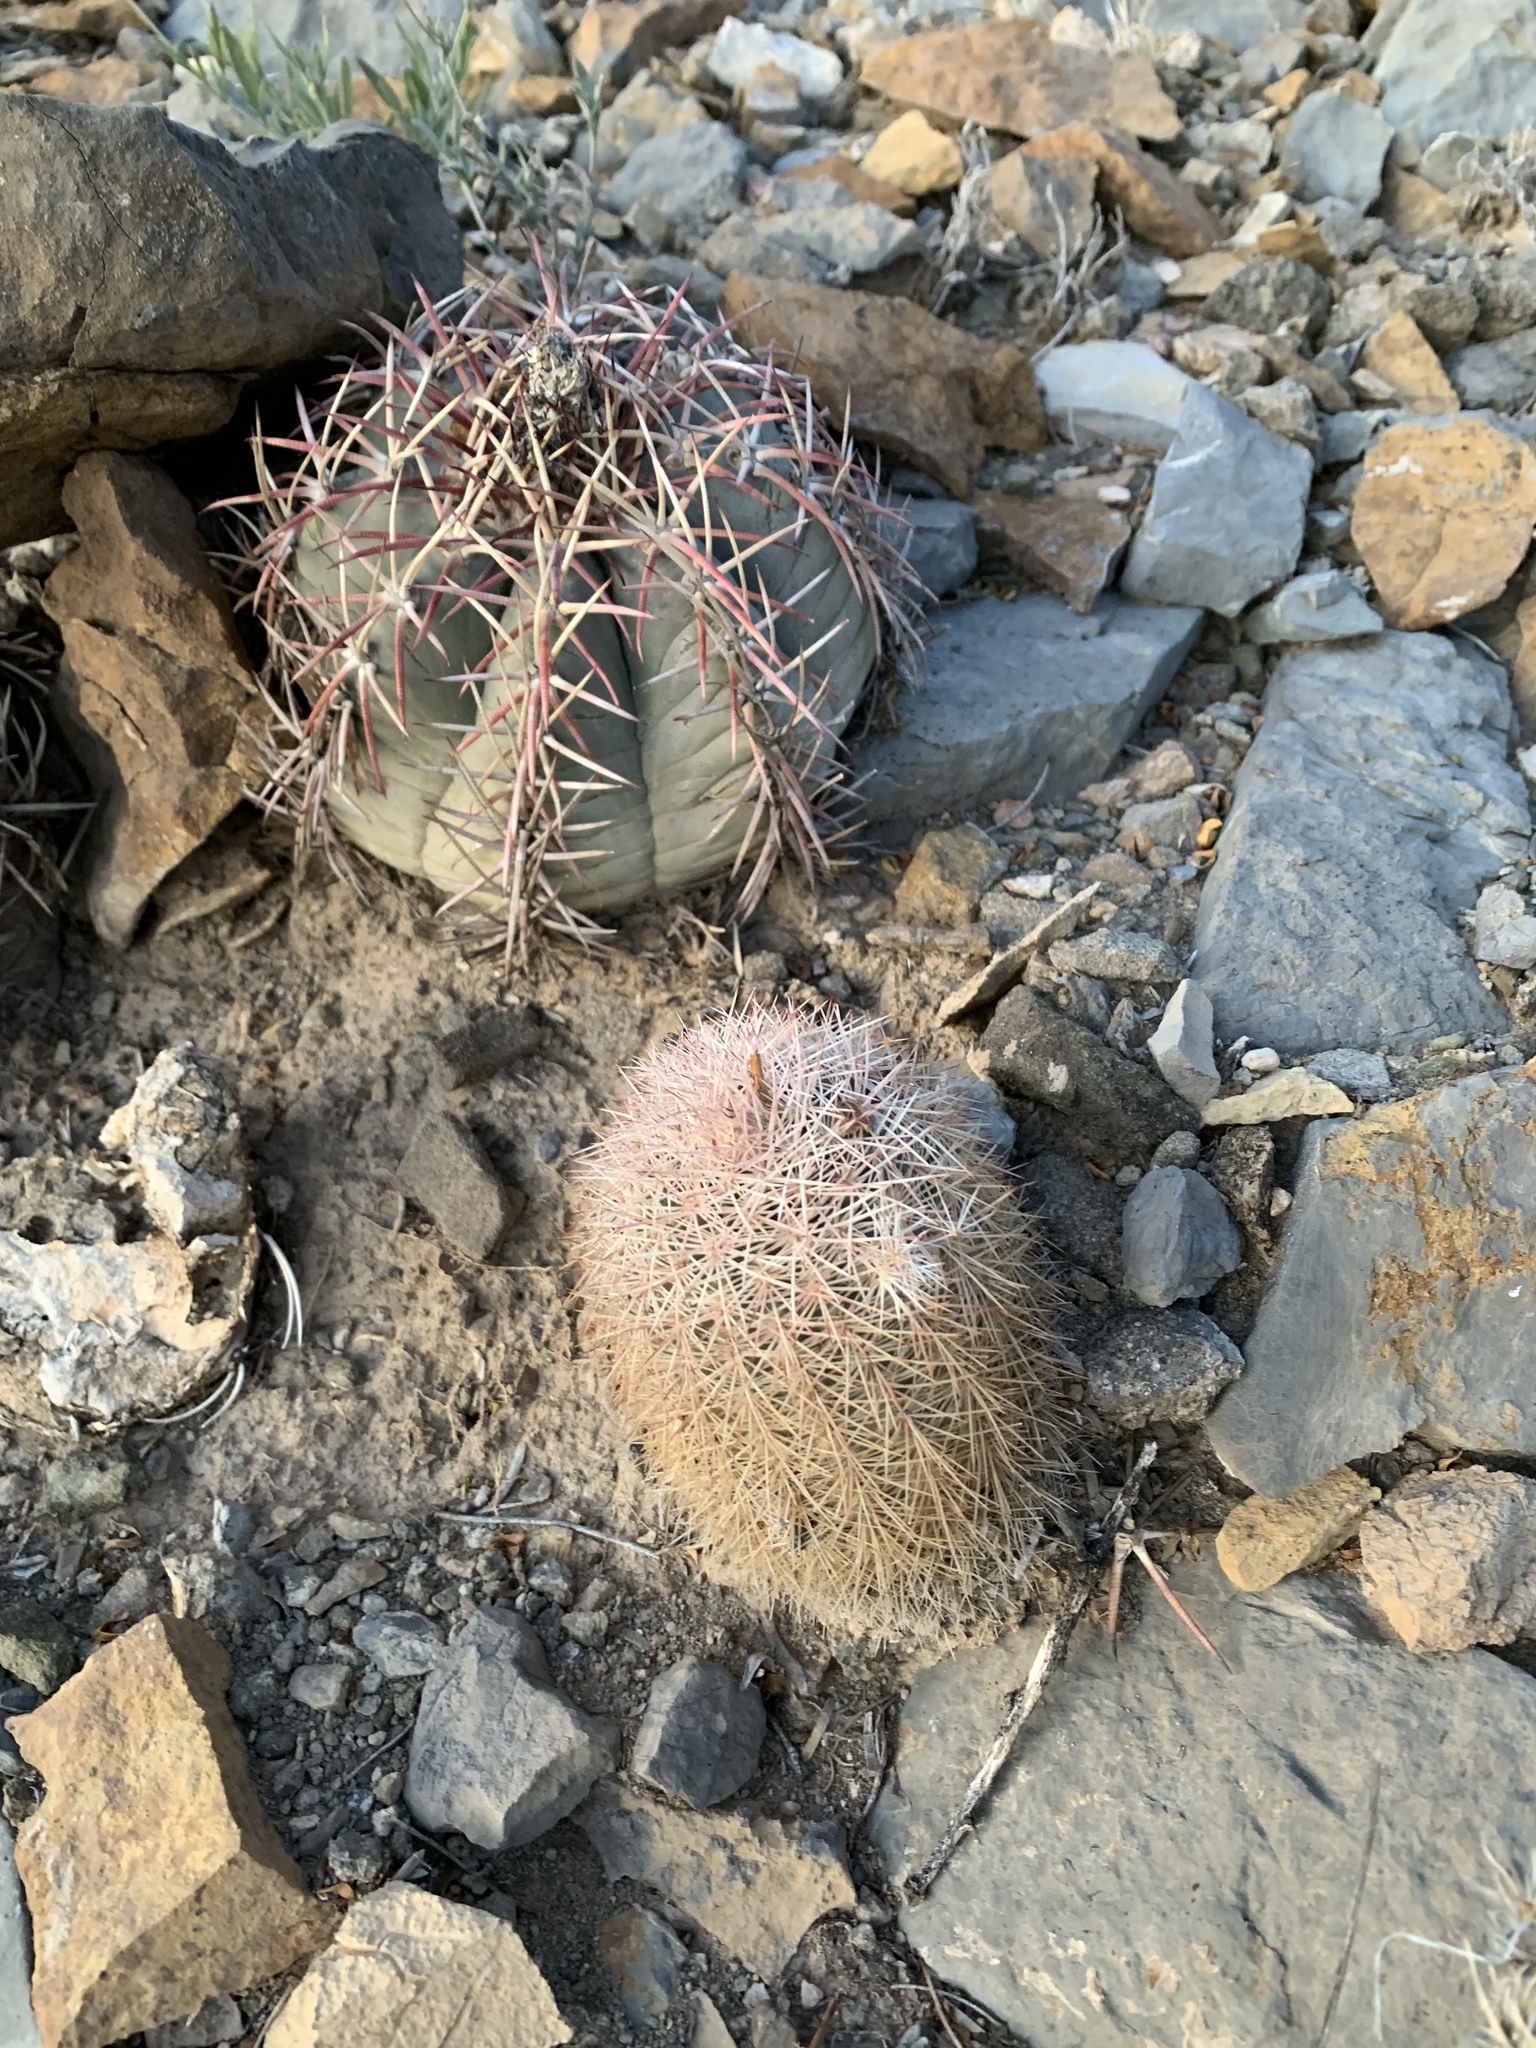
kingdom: Plantae
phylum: Tracheophyta
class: Magnoliopsida
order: Caryophyllales
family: Cactaceae
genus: Echinocereus
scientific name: Echinocereus dasyacanthus
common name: Spiny hedgehog cactus
